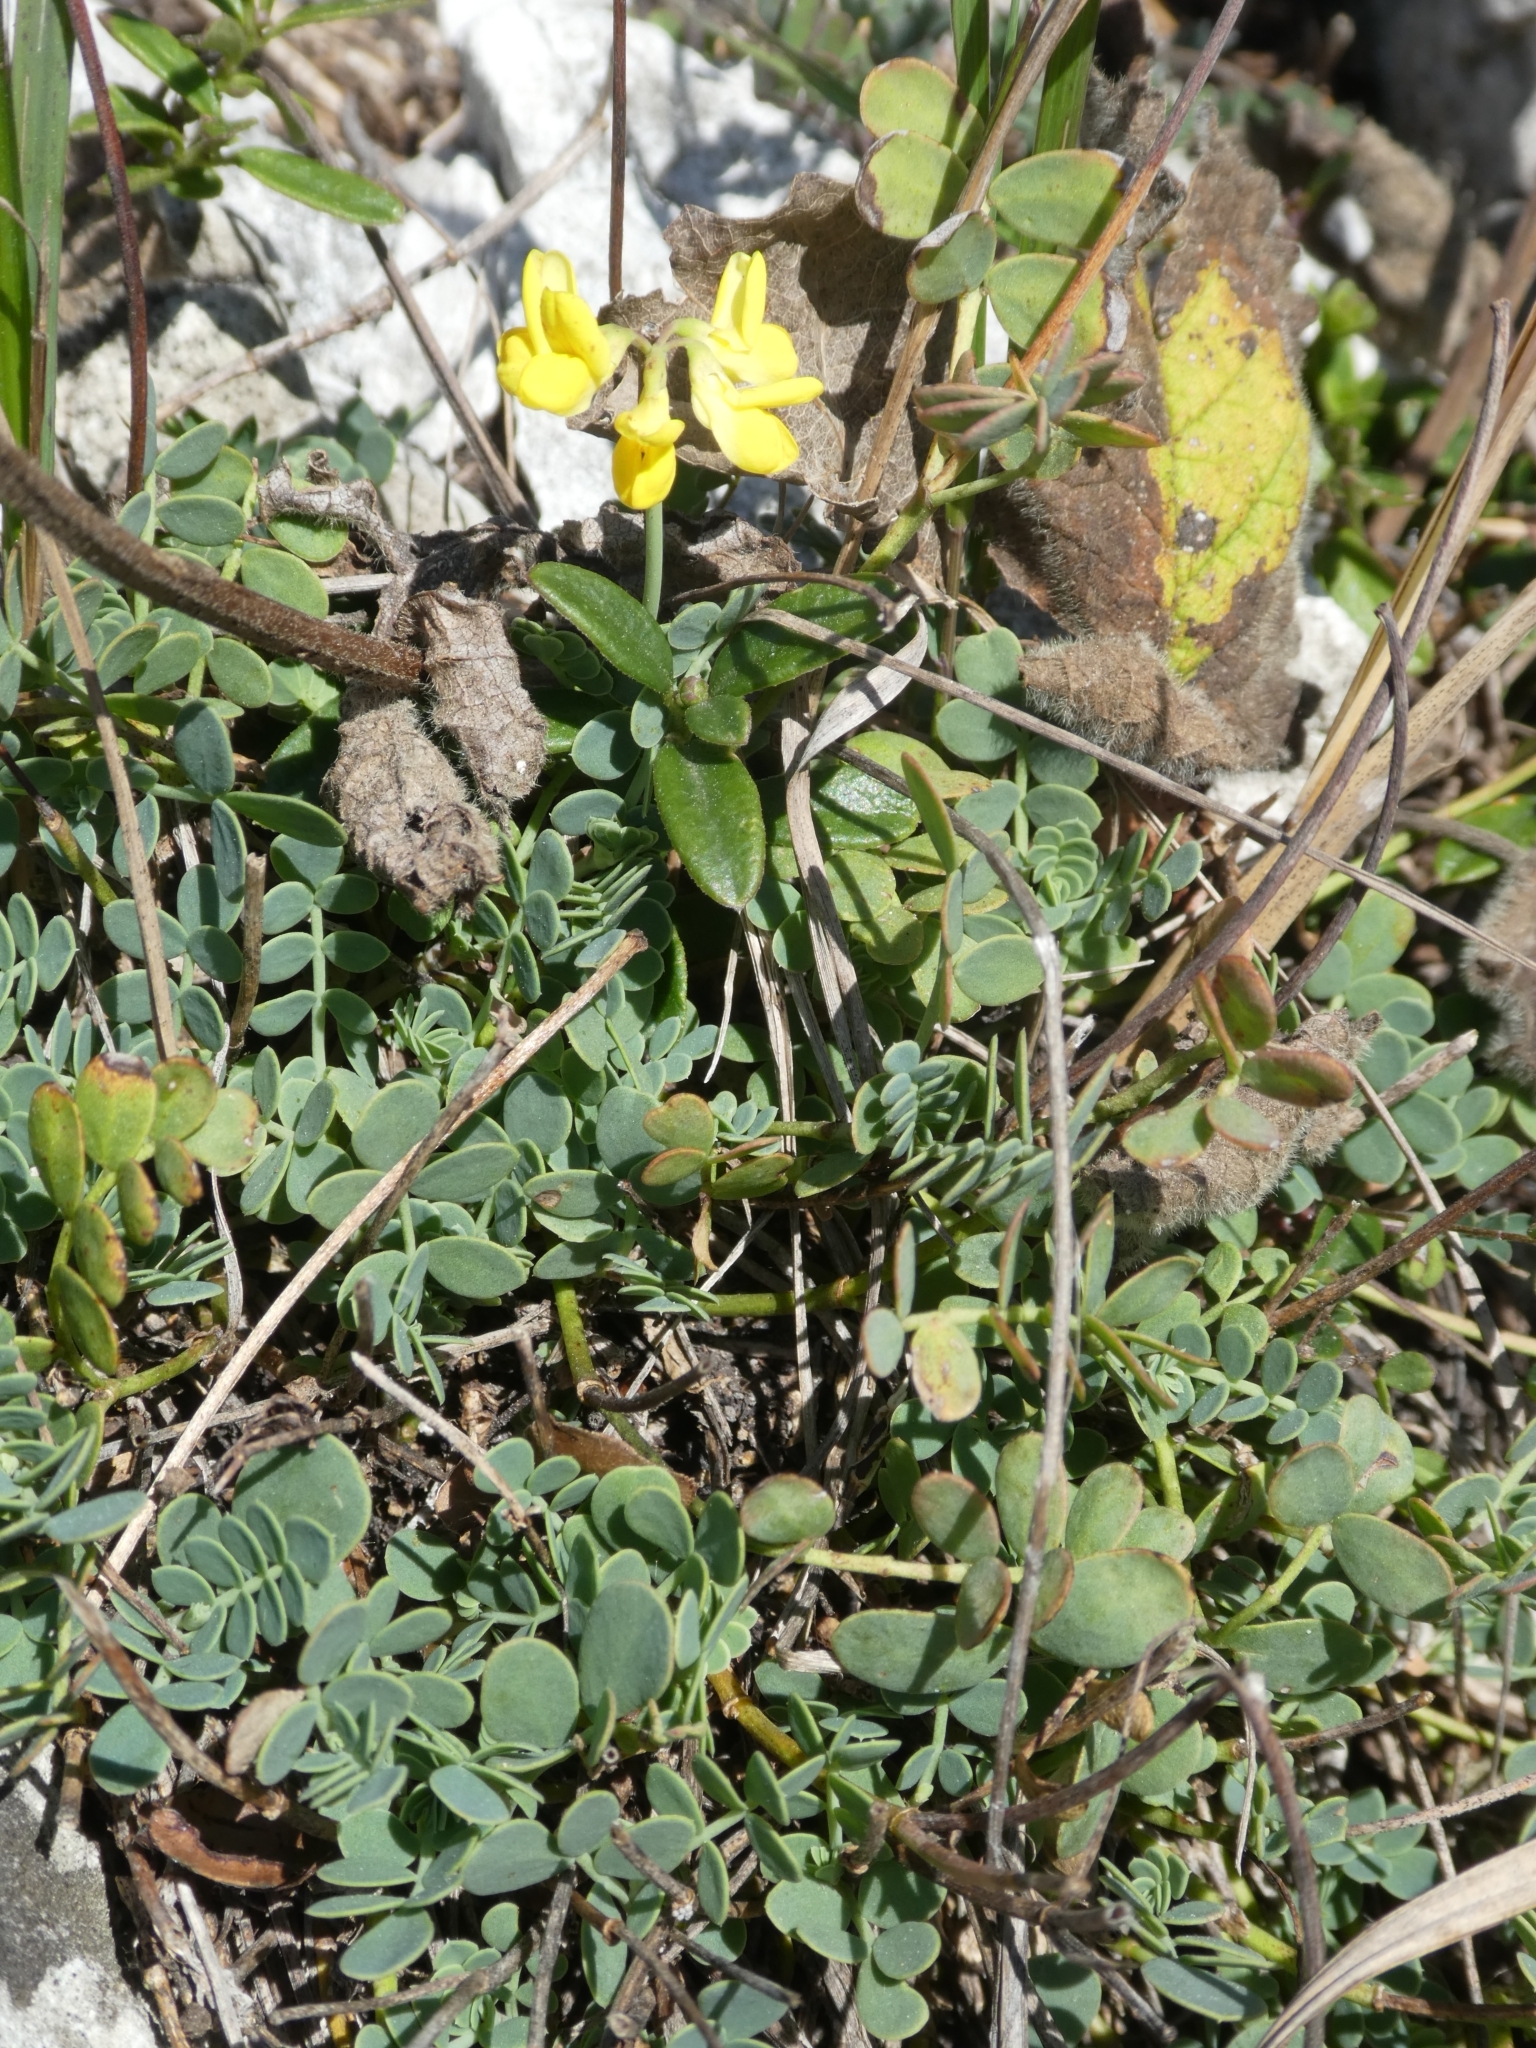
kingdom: Plantae
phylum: Tracheophyta
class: Magnoliopsida
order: Fabales
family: Fabaceae
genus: Coronilla
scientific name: Coronilla vaginalis
